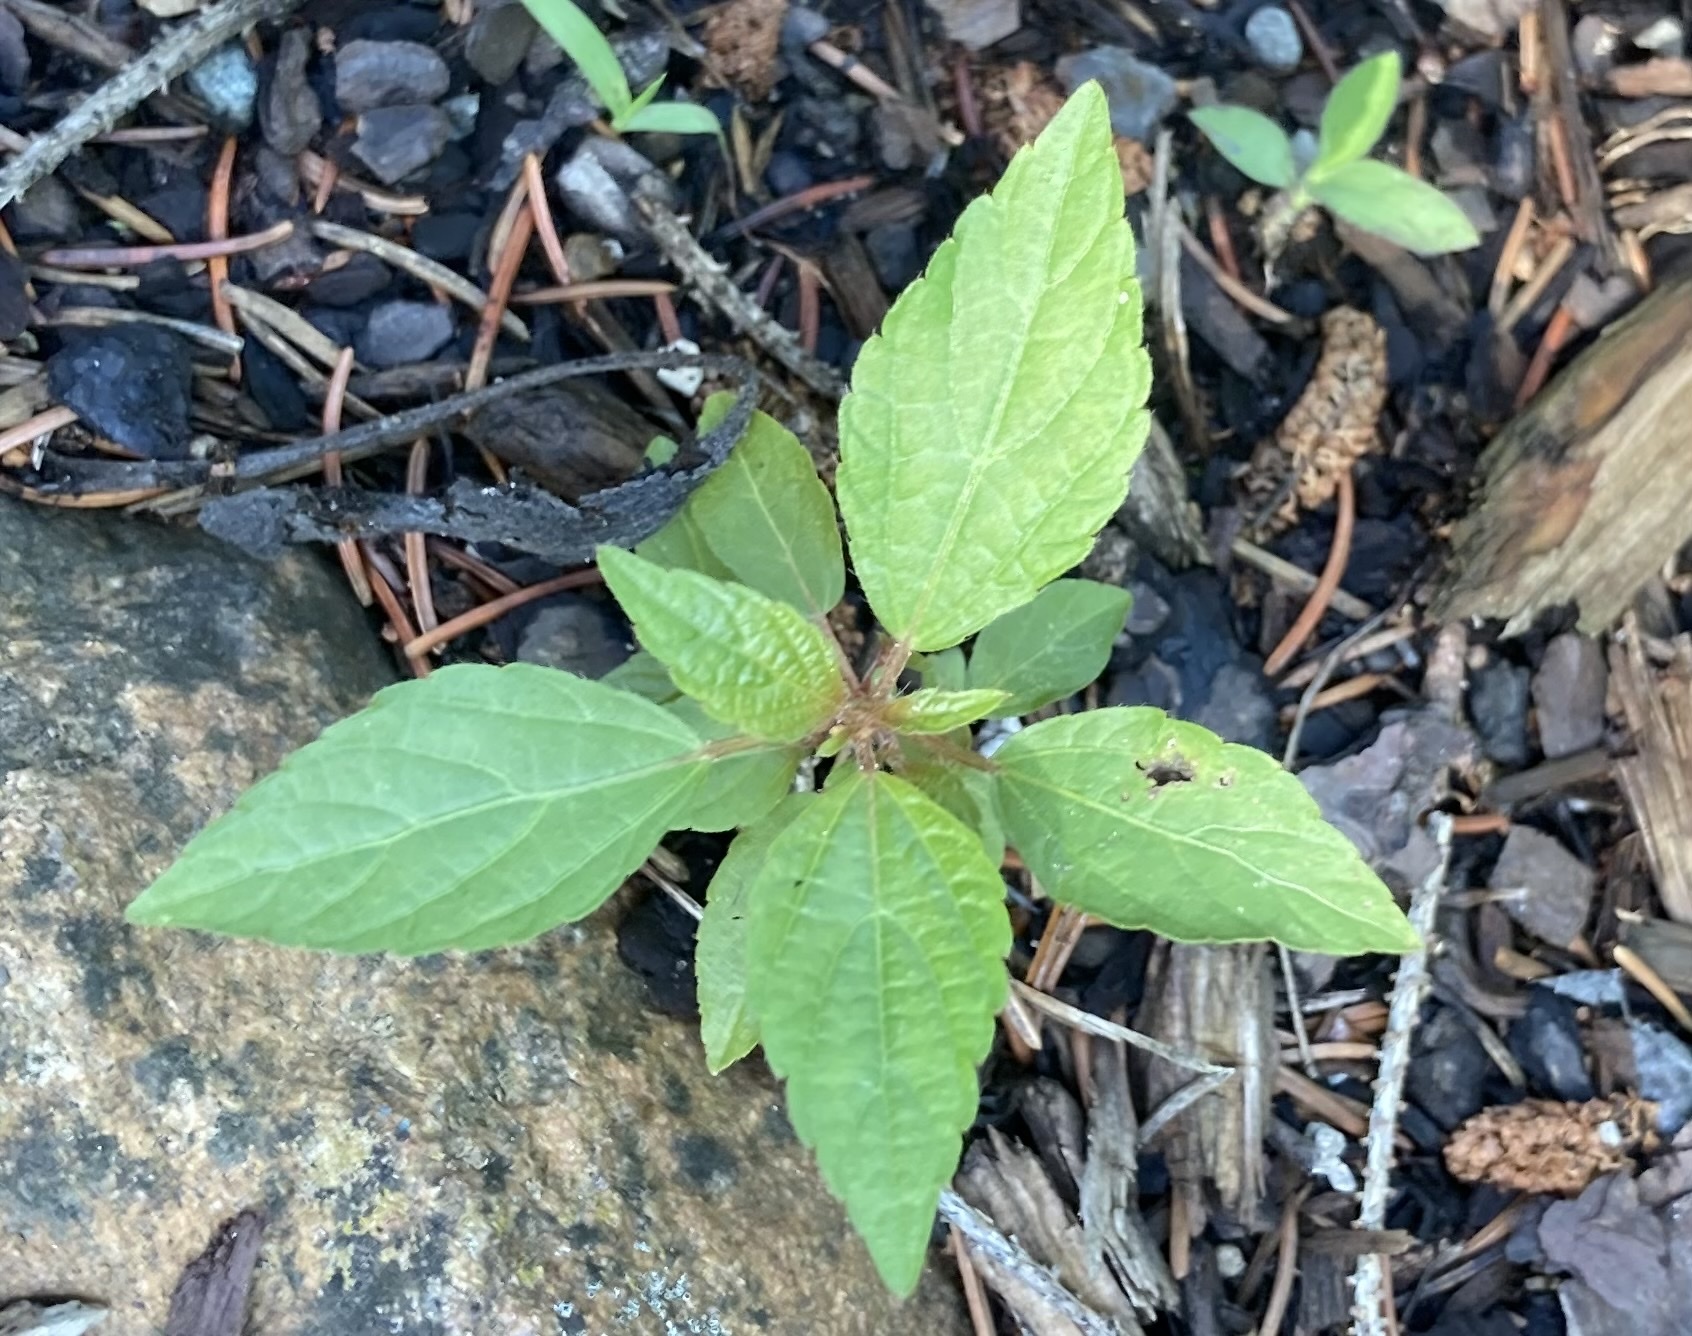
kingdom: Plantae
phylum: Tracheophyta
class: Magnoliopsida
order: Malpighiales
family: Euphorbiaceae
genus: Acalypha
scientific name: Acalypha rhomboidea
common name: Rhombic copperleaf
